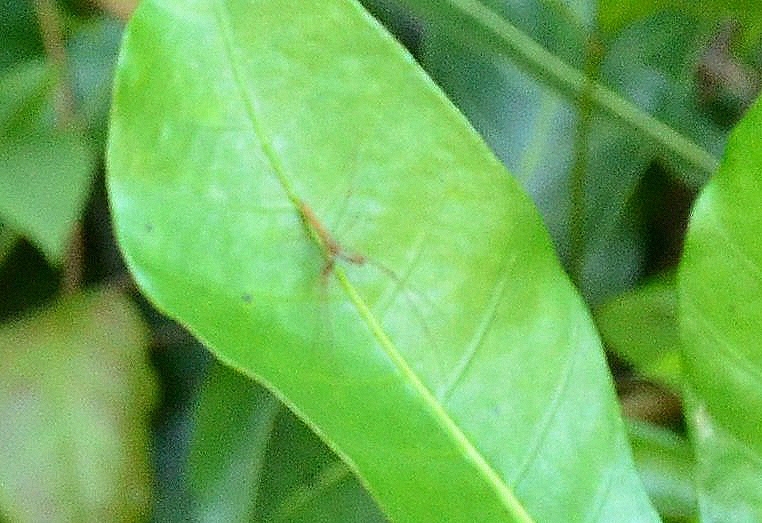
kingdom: Animalia
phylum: Arthropoda
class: Arachnida
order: Araneae
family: Tetragnathidae
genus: Tetragnatha
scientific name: Tetragnatha hasselti
